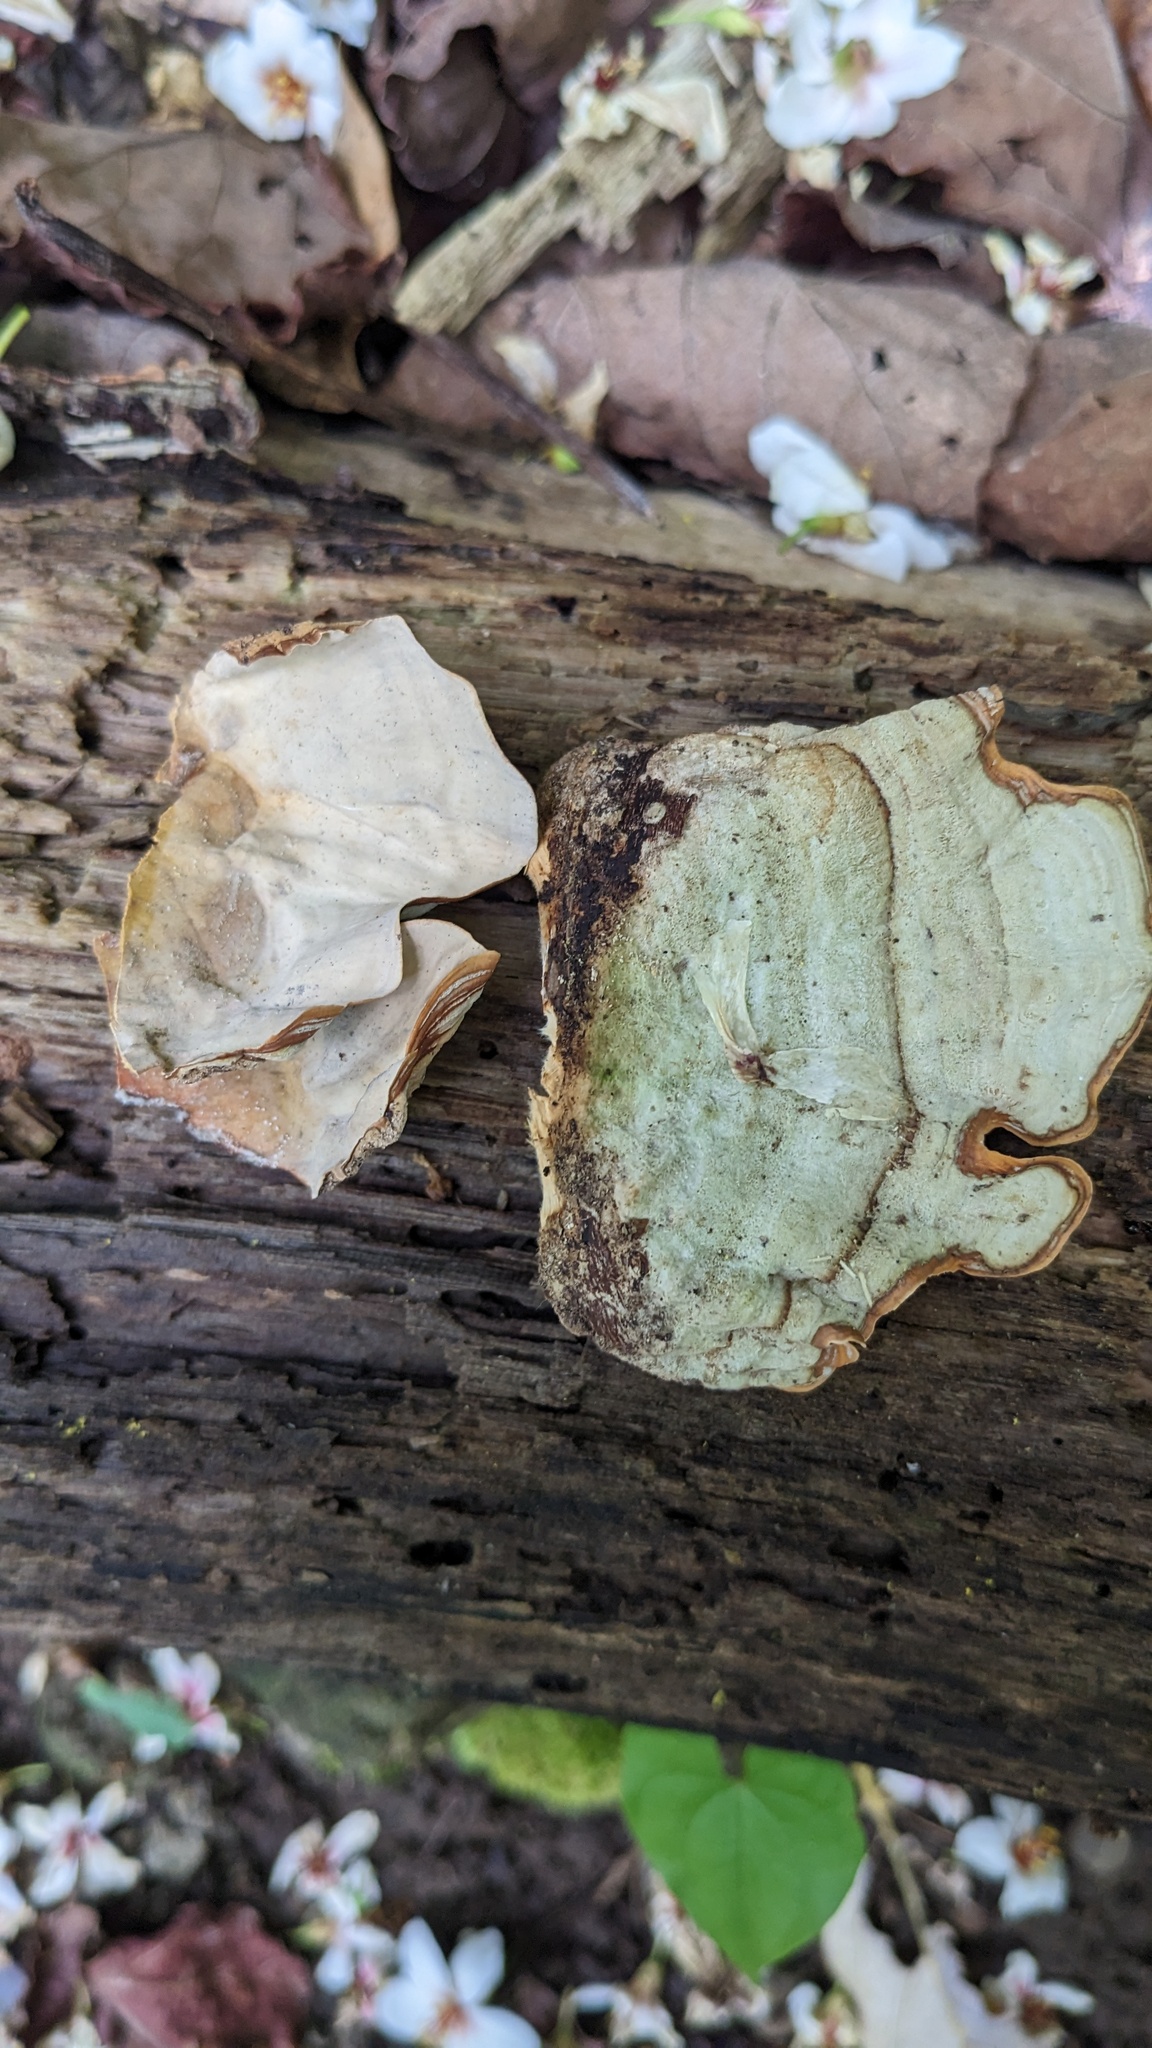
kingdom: Fungi
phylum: Basidiomycota
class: Agaricomycetes
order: Russulales
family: Stereaceae
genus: Stereum
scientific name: Stereum ostrea
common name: False turkeytail
